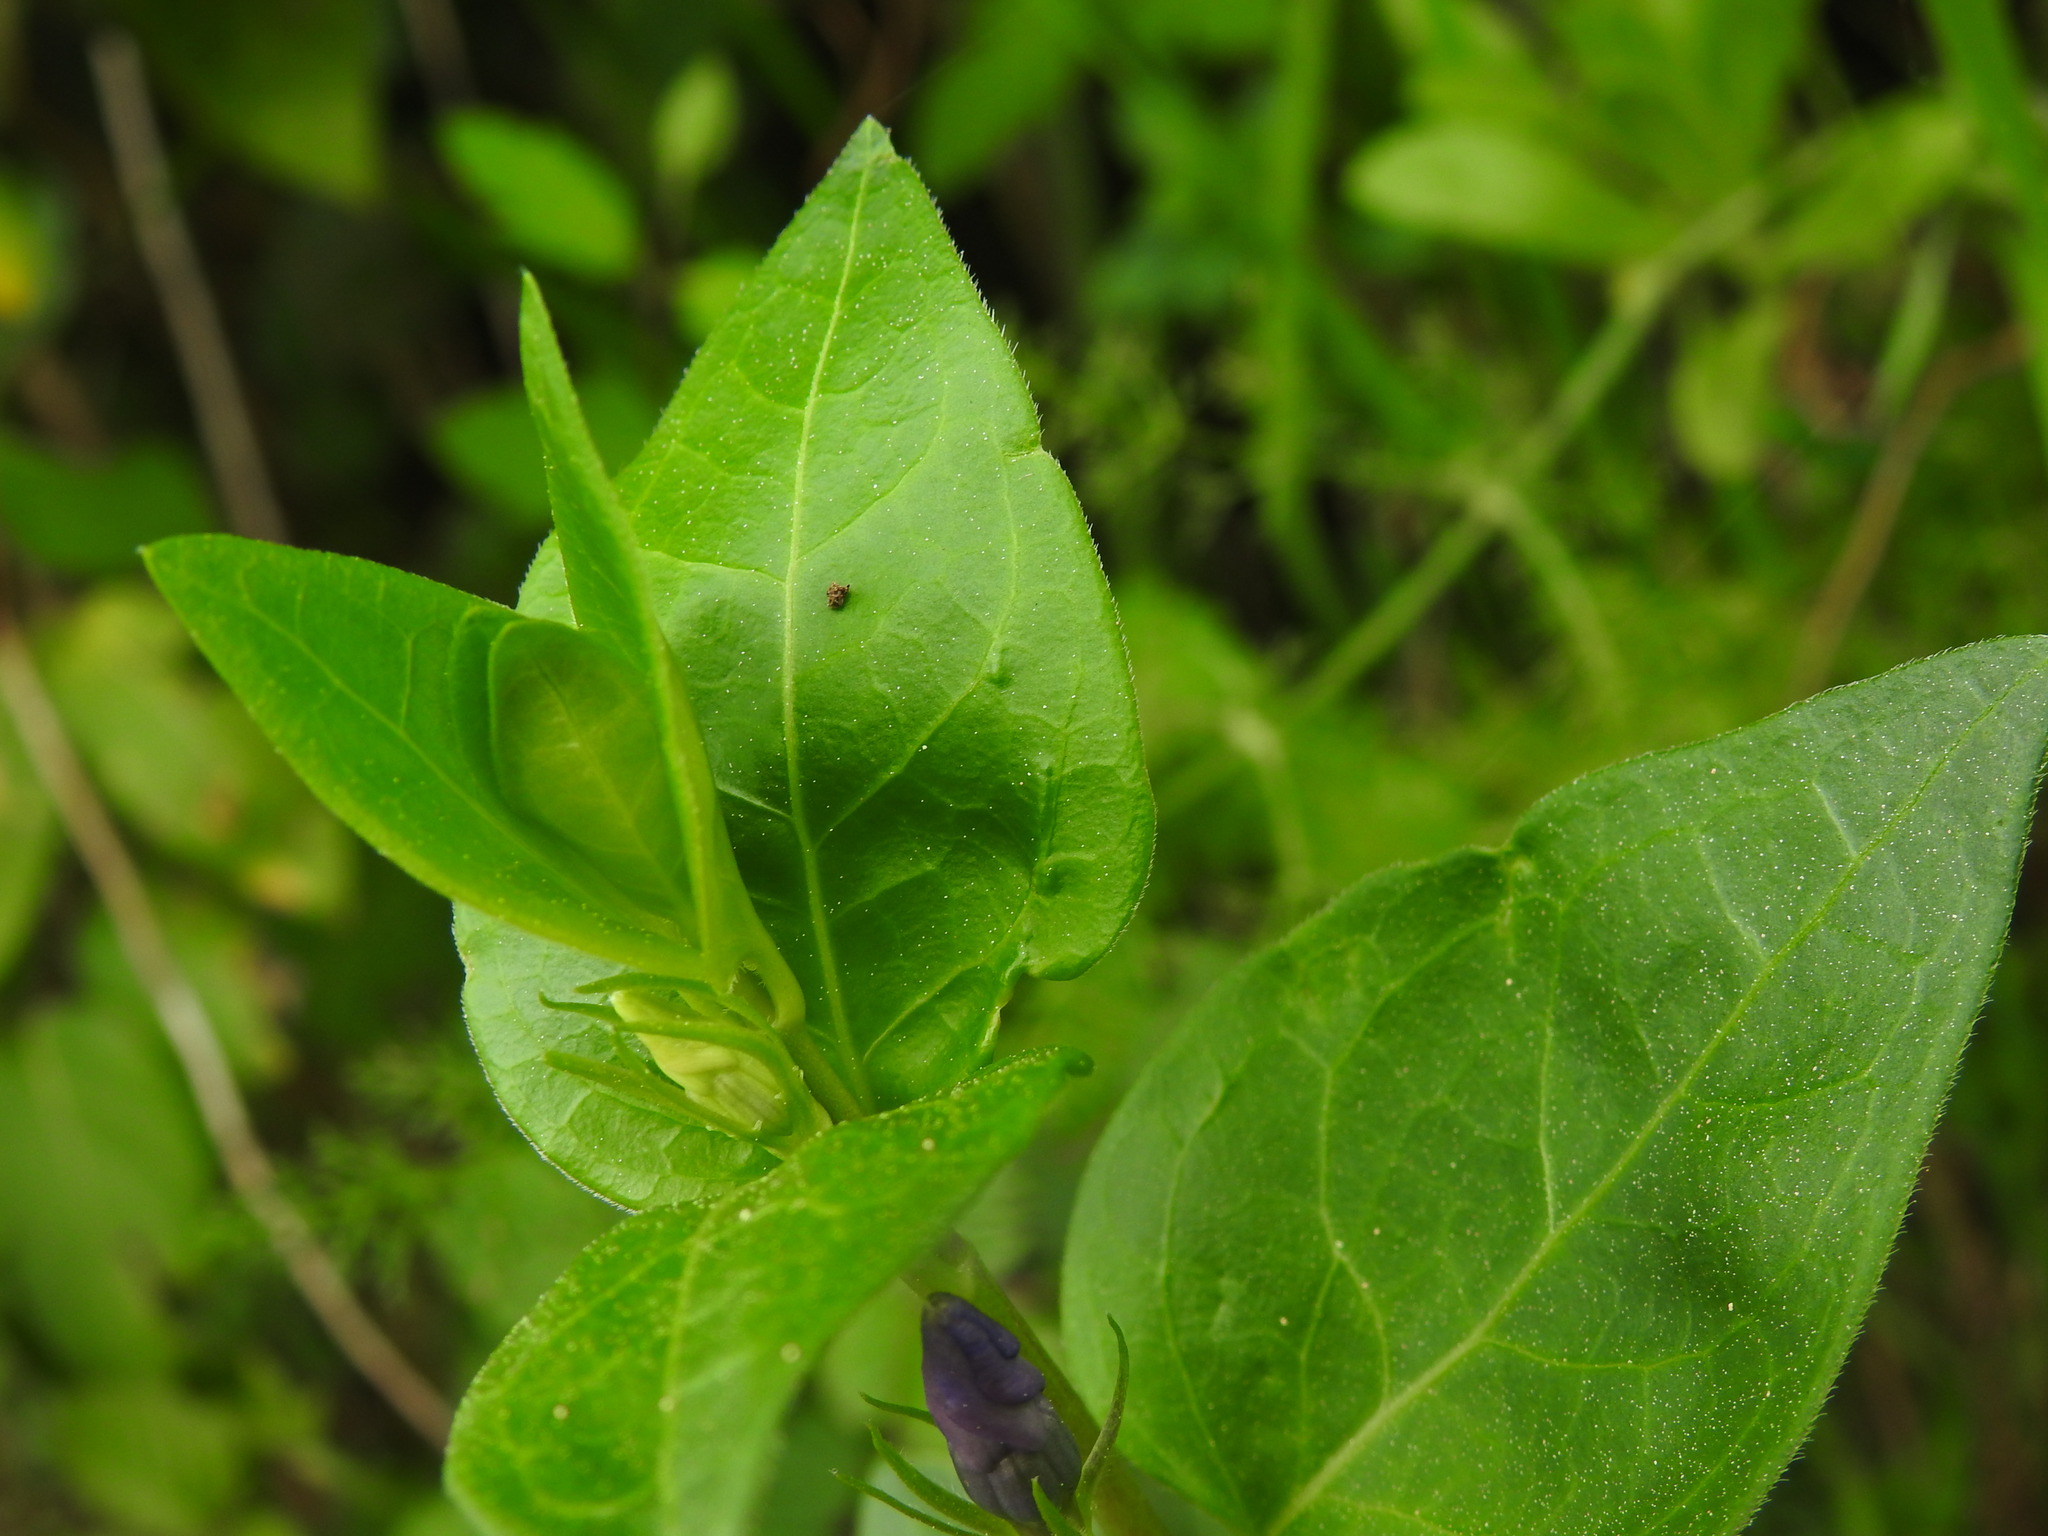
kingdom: Plantae
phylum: Tracheophyta
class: Magnoliopsida
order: Gentianales
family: Apocynaceae
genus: Vinca
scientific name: Vinca major
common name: Greater periwinkle
